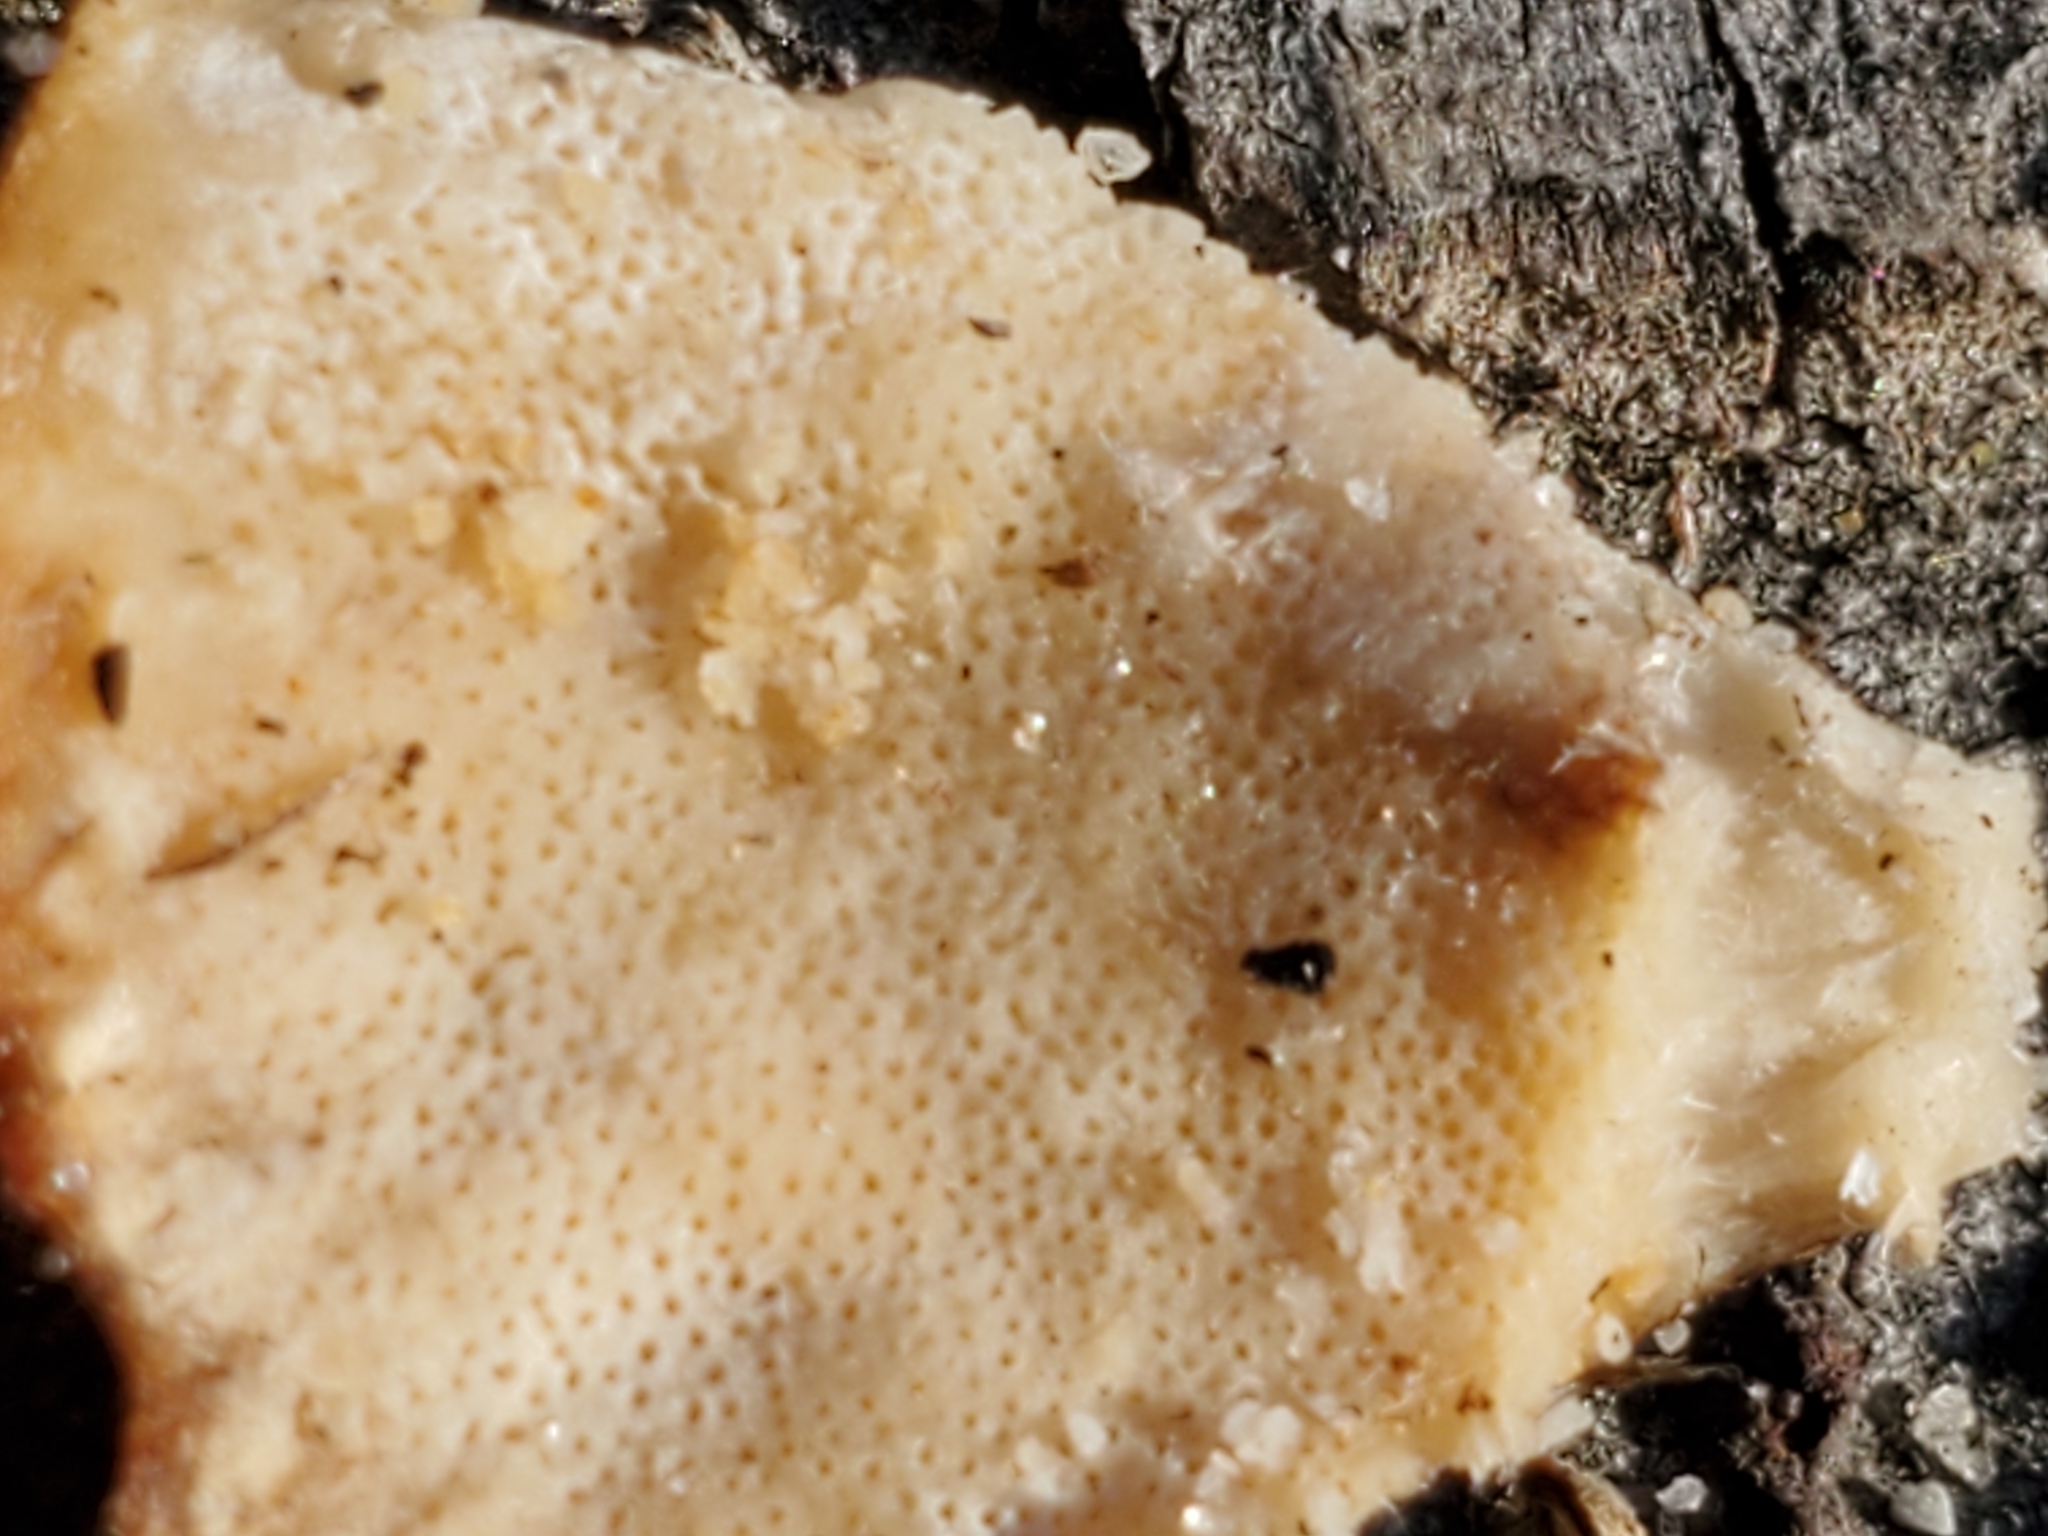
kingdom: Fungi
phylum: Basidiomycota
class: Agaricomycetes
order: Polyporales
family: Polyporaceae
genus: Trametes
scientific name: Trametes versicolor
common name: Turkeytail
